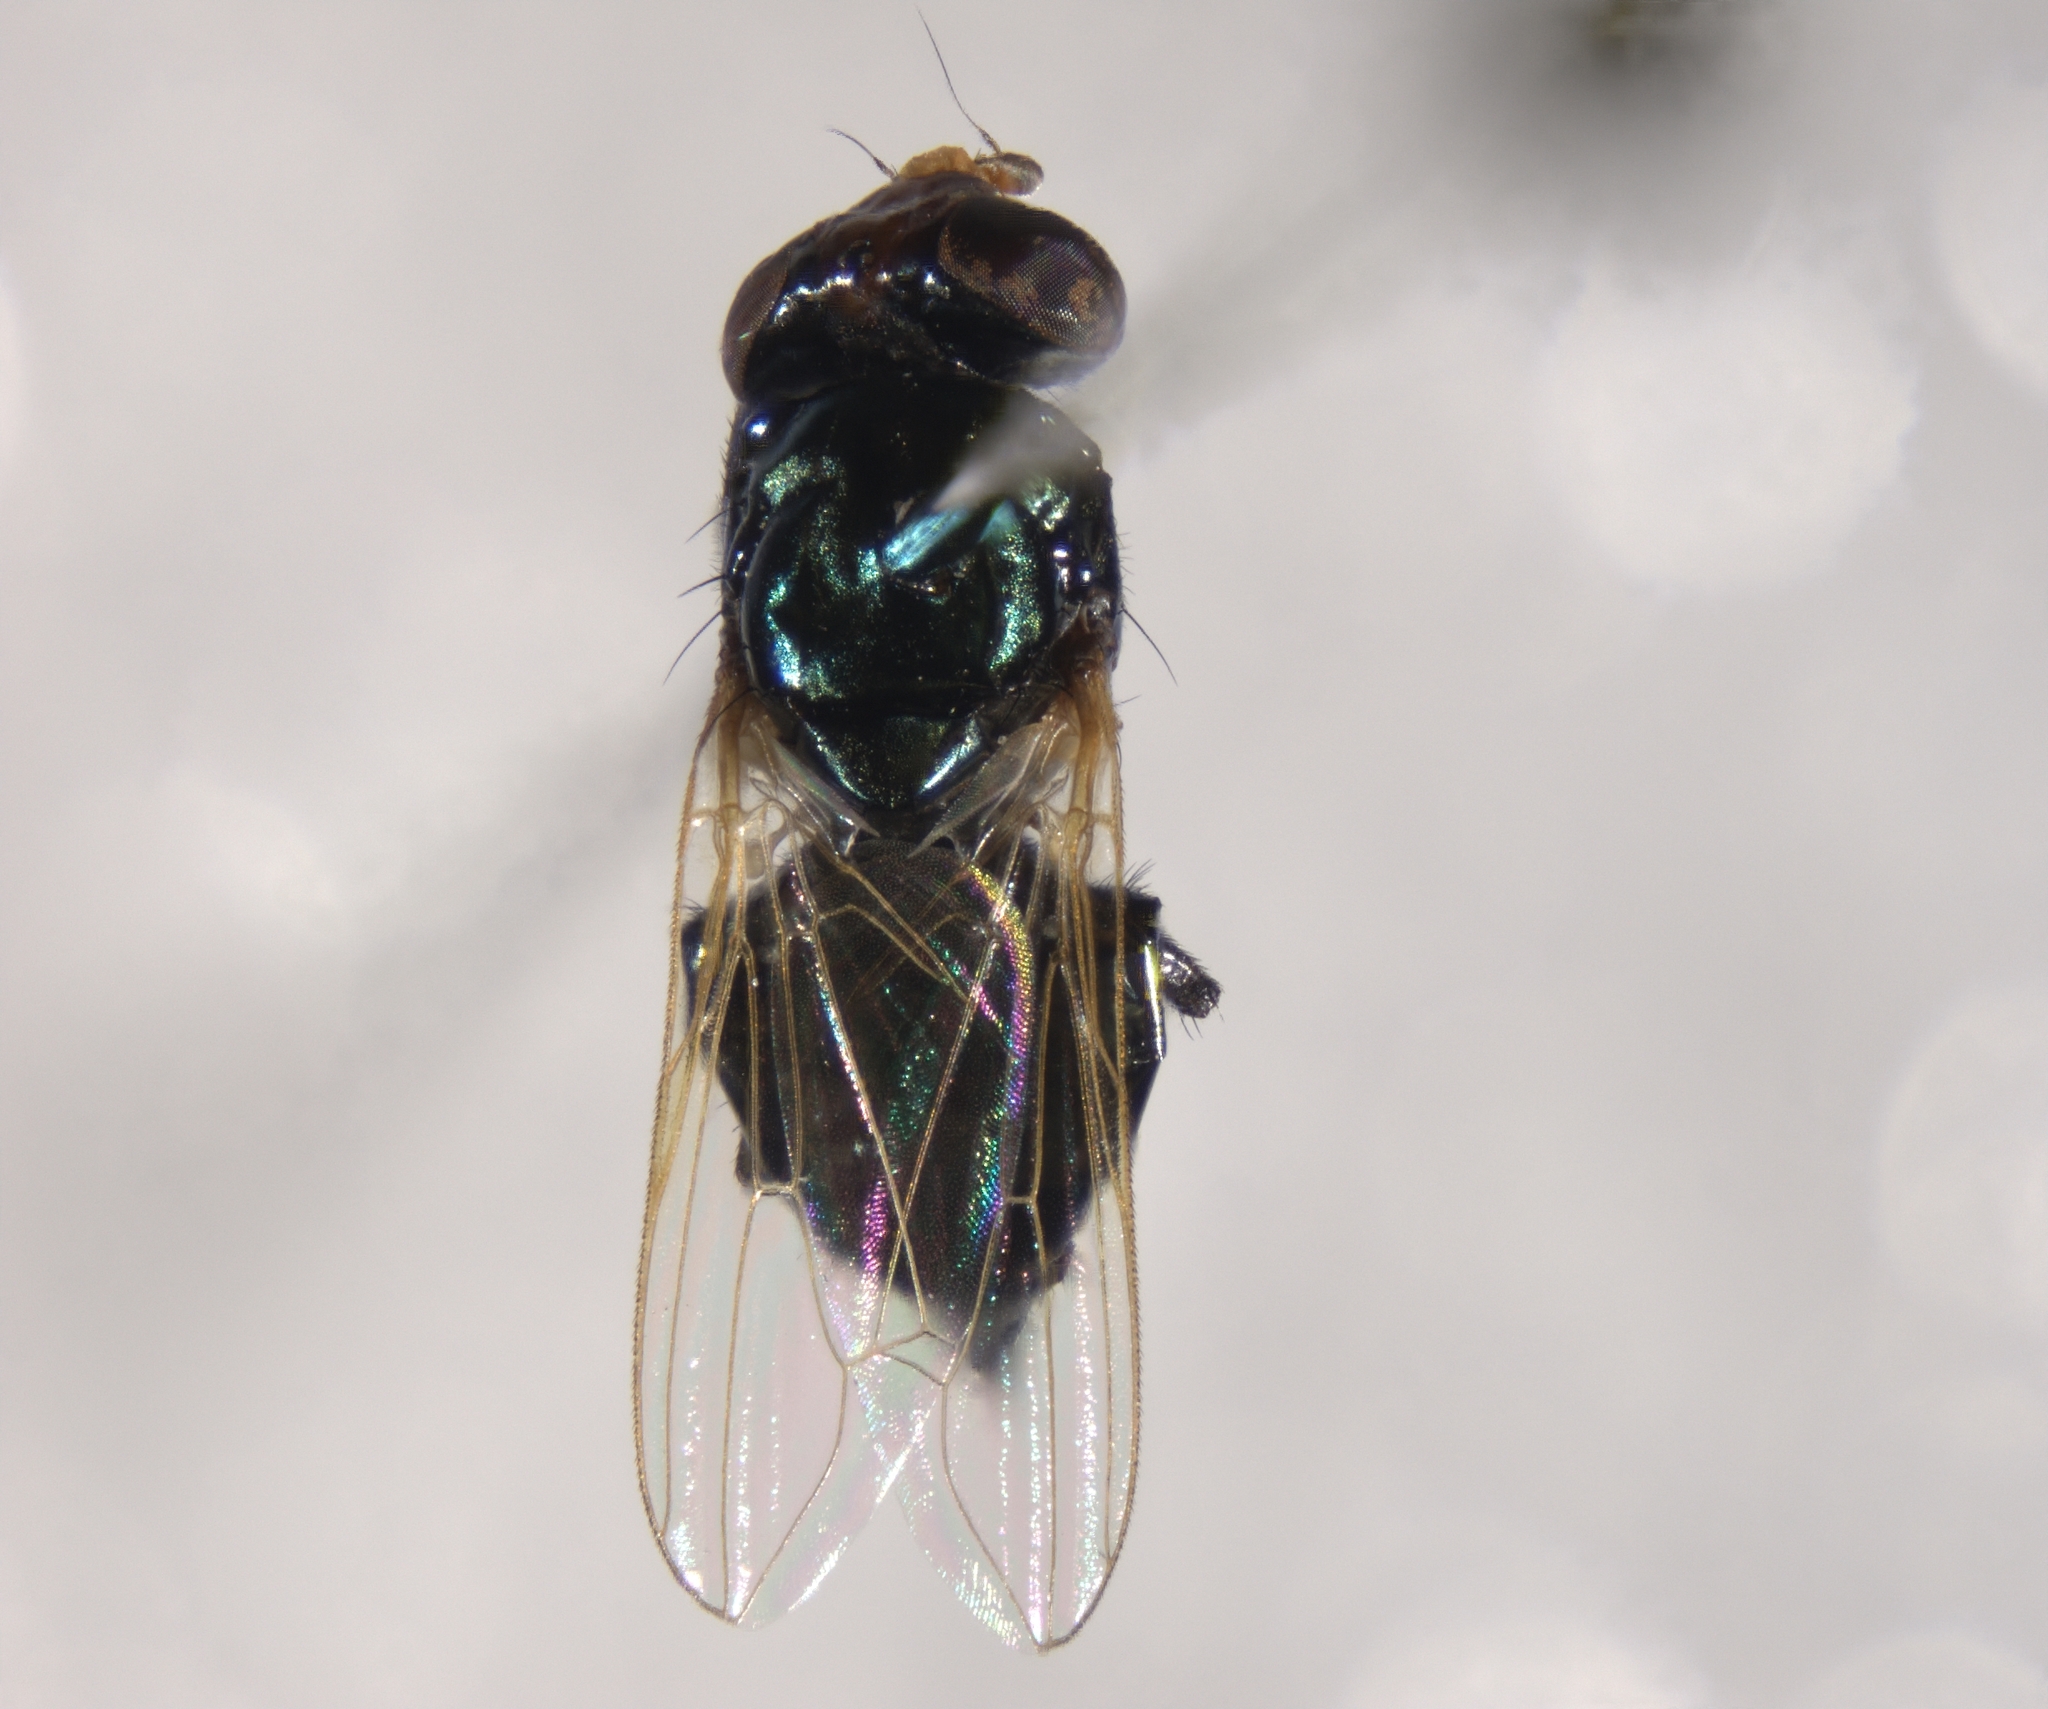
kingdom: Animalia
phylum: Arthropoda
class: Insecta
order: Diptera
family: Ulidiidae
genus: Physiphora
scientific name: Physiphora alceae
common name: Picture-winged fly
